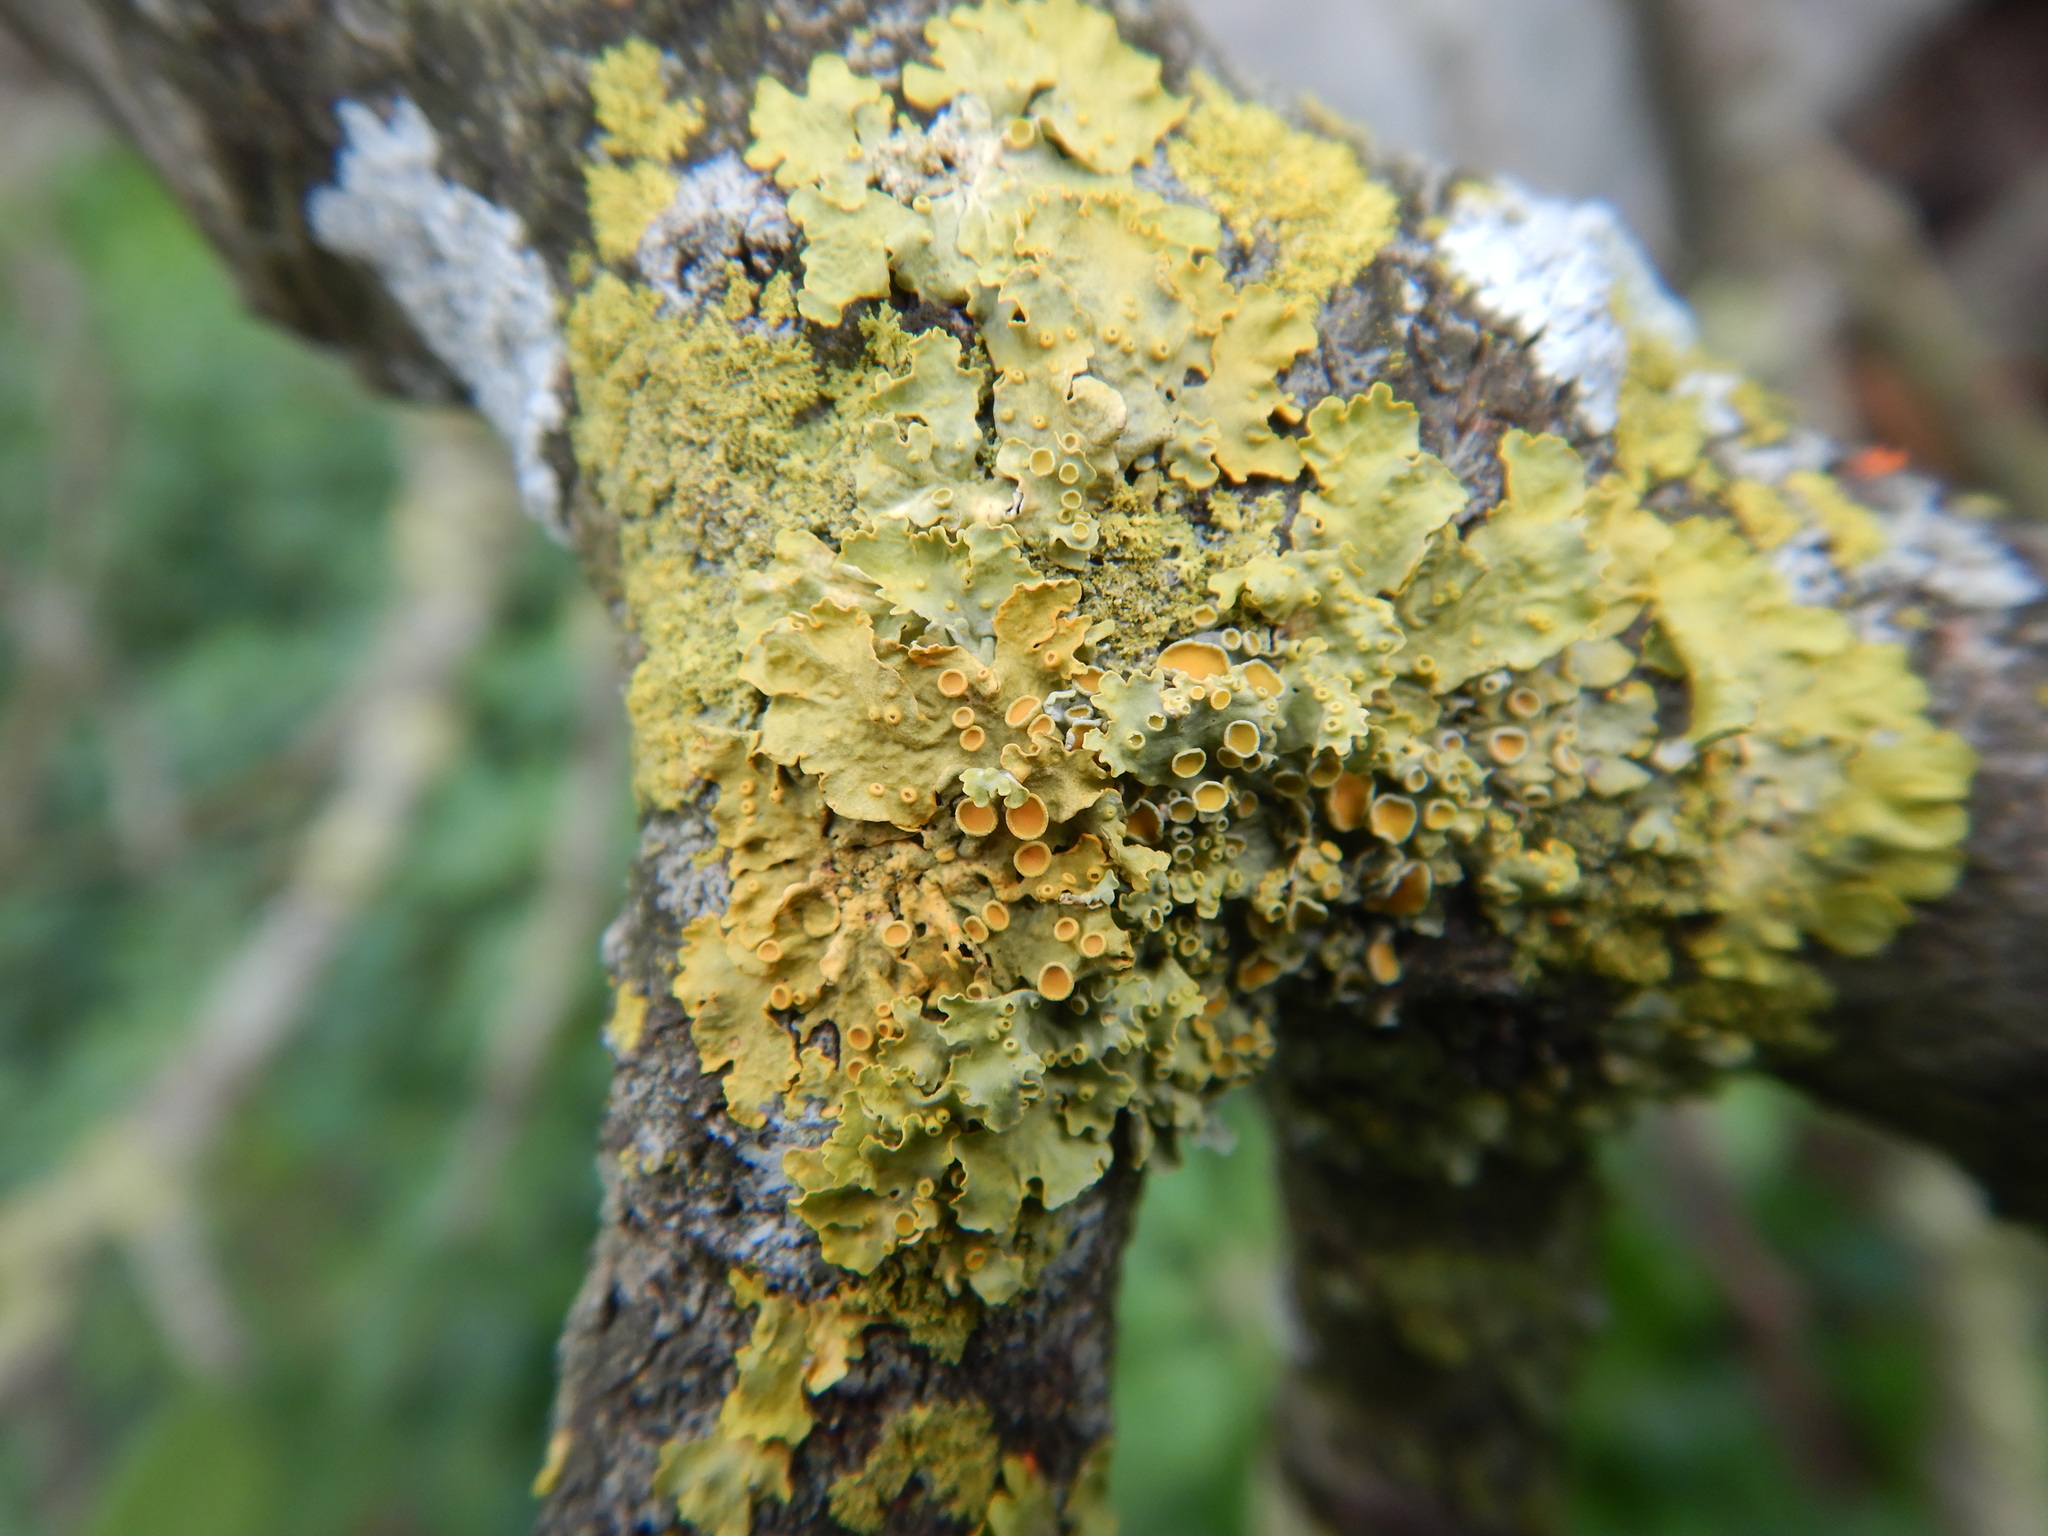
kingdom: Fungi
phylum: Ascomycota
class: Lecanoromycetes
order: Teloschistales
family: Teloschistaceae
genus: Xanthoria
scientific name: Xanthoria parietina
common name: Common orange lichen
